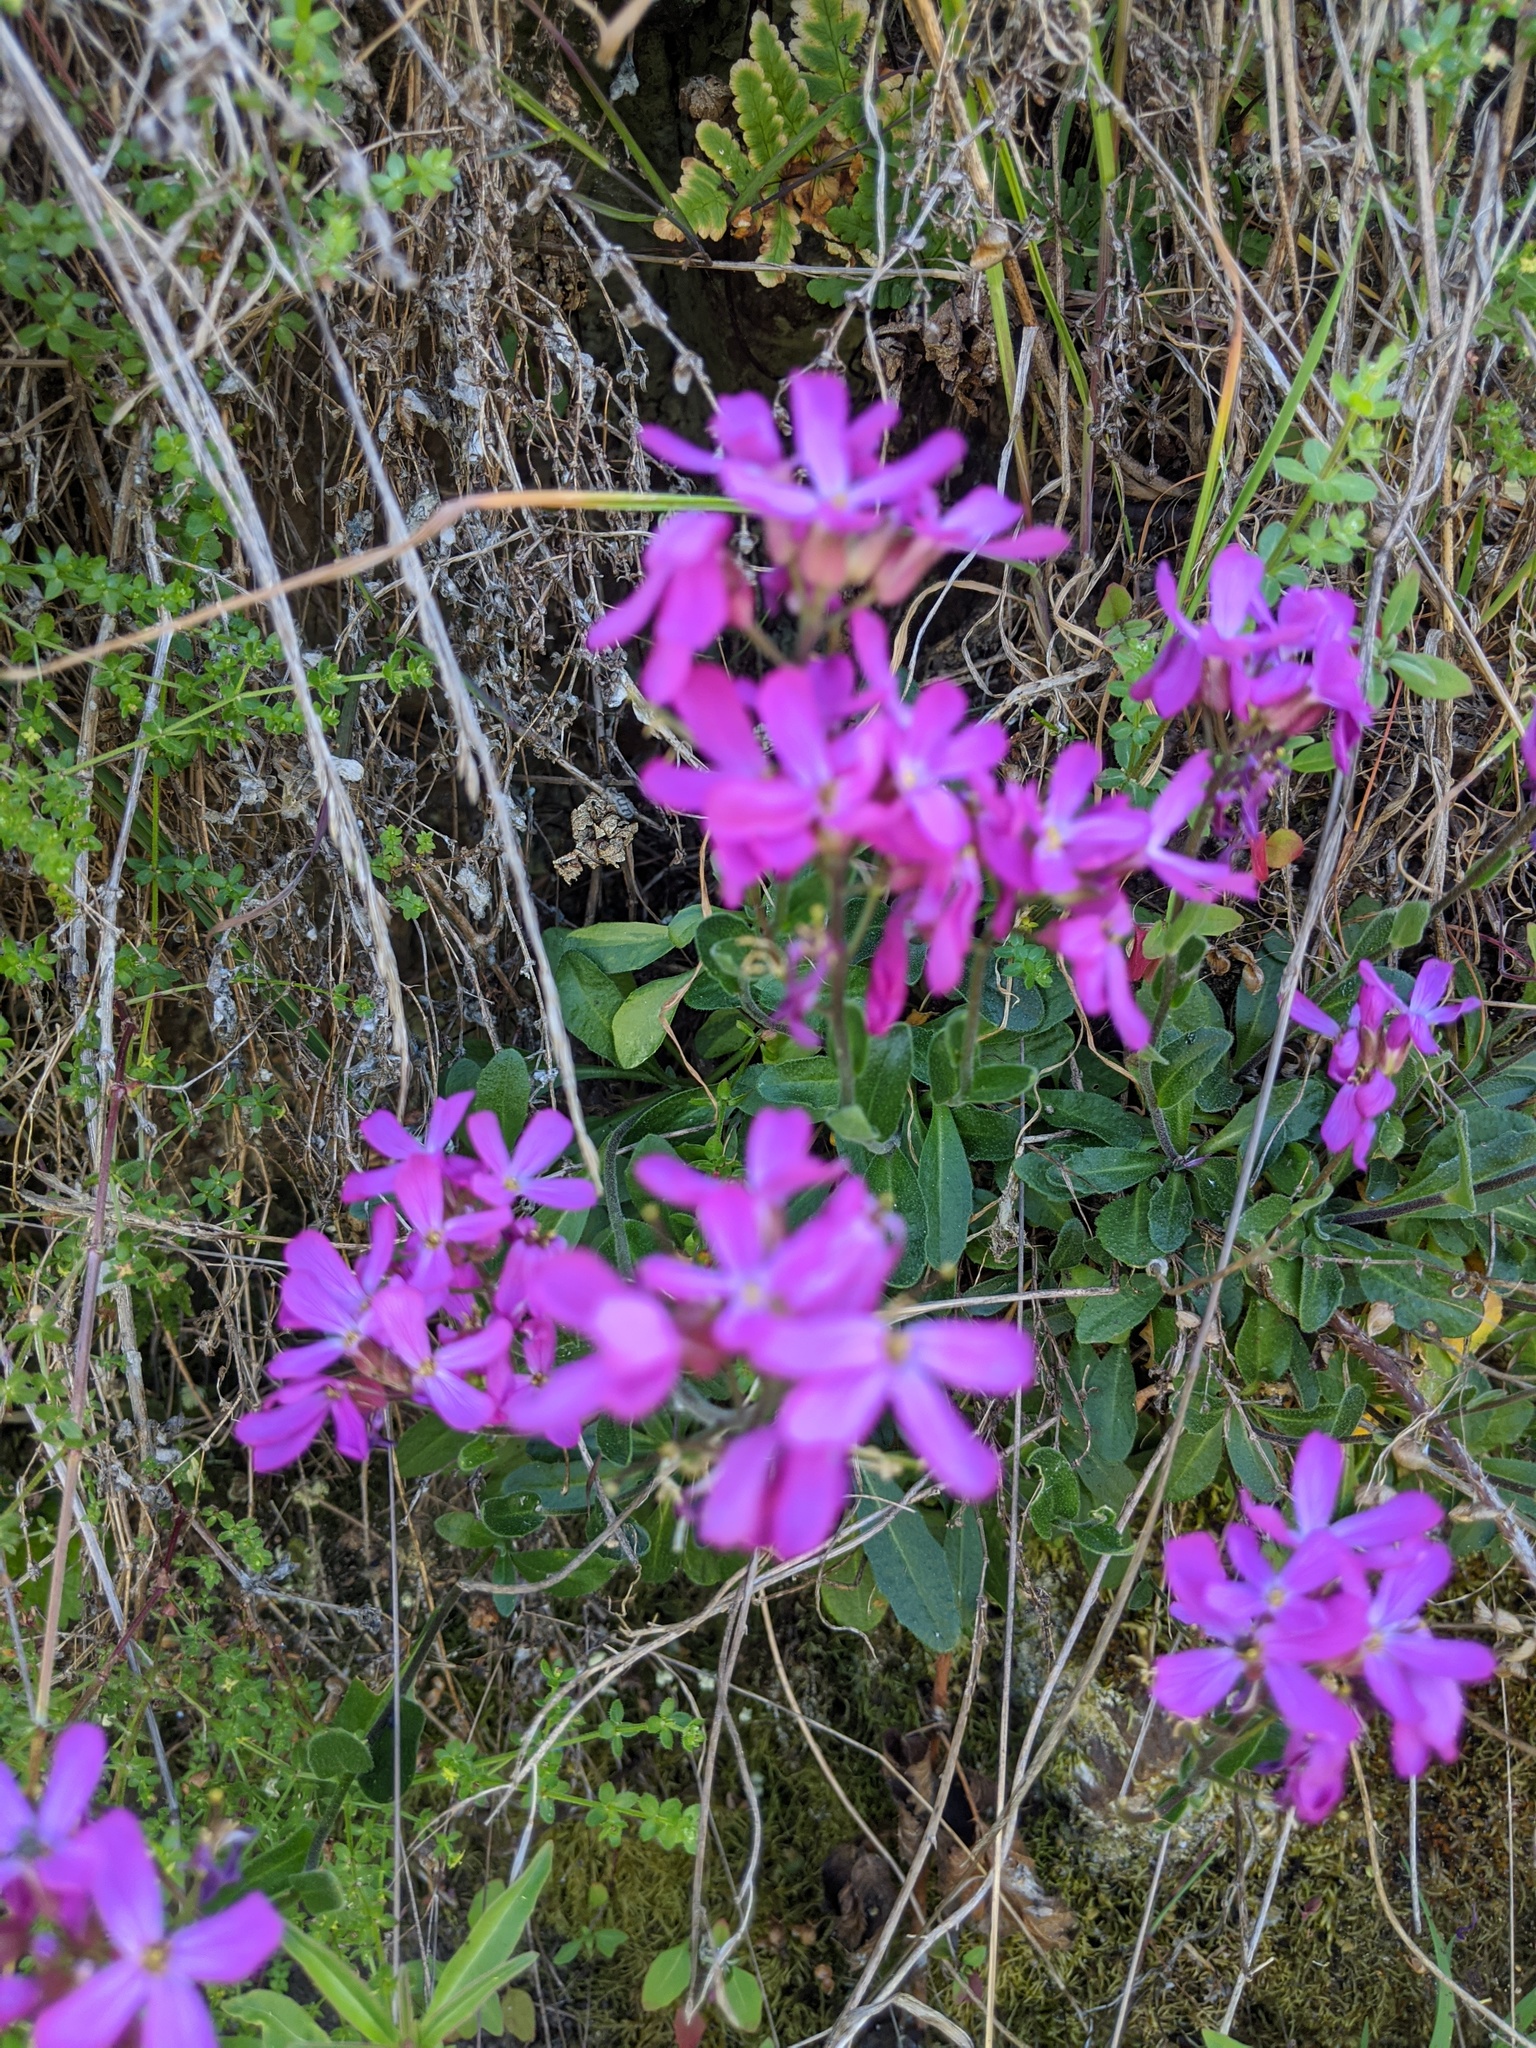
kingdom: Plantae
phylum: Tracheophyta
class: Magnoliopsida
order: Brassicales
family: Brassicaceae
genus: Arabis
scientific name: Arabis blepharophylla
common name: Rose rockcress
